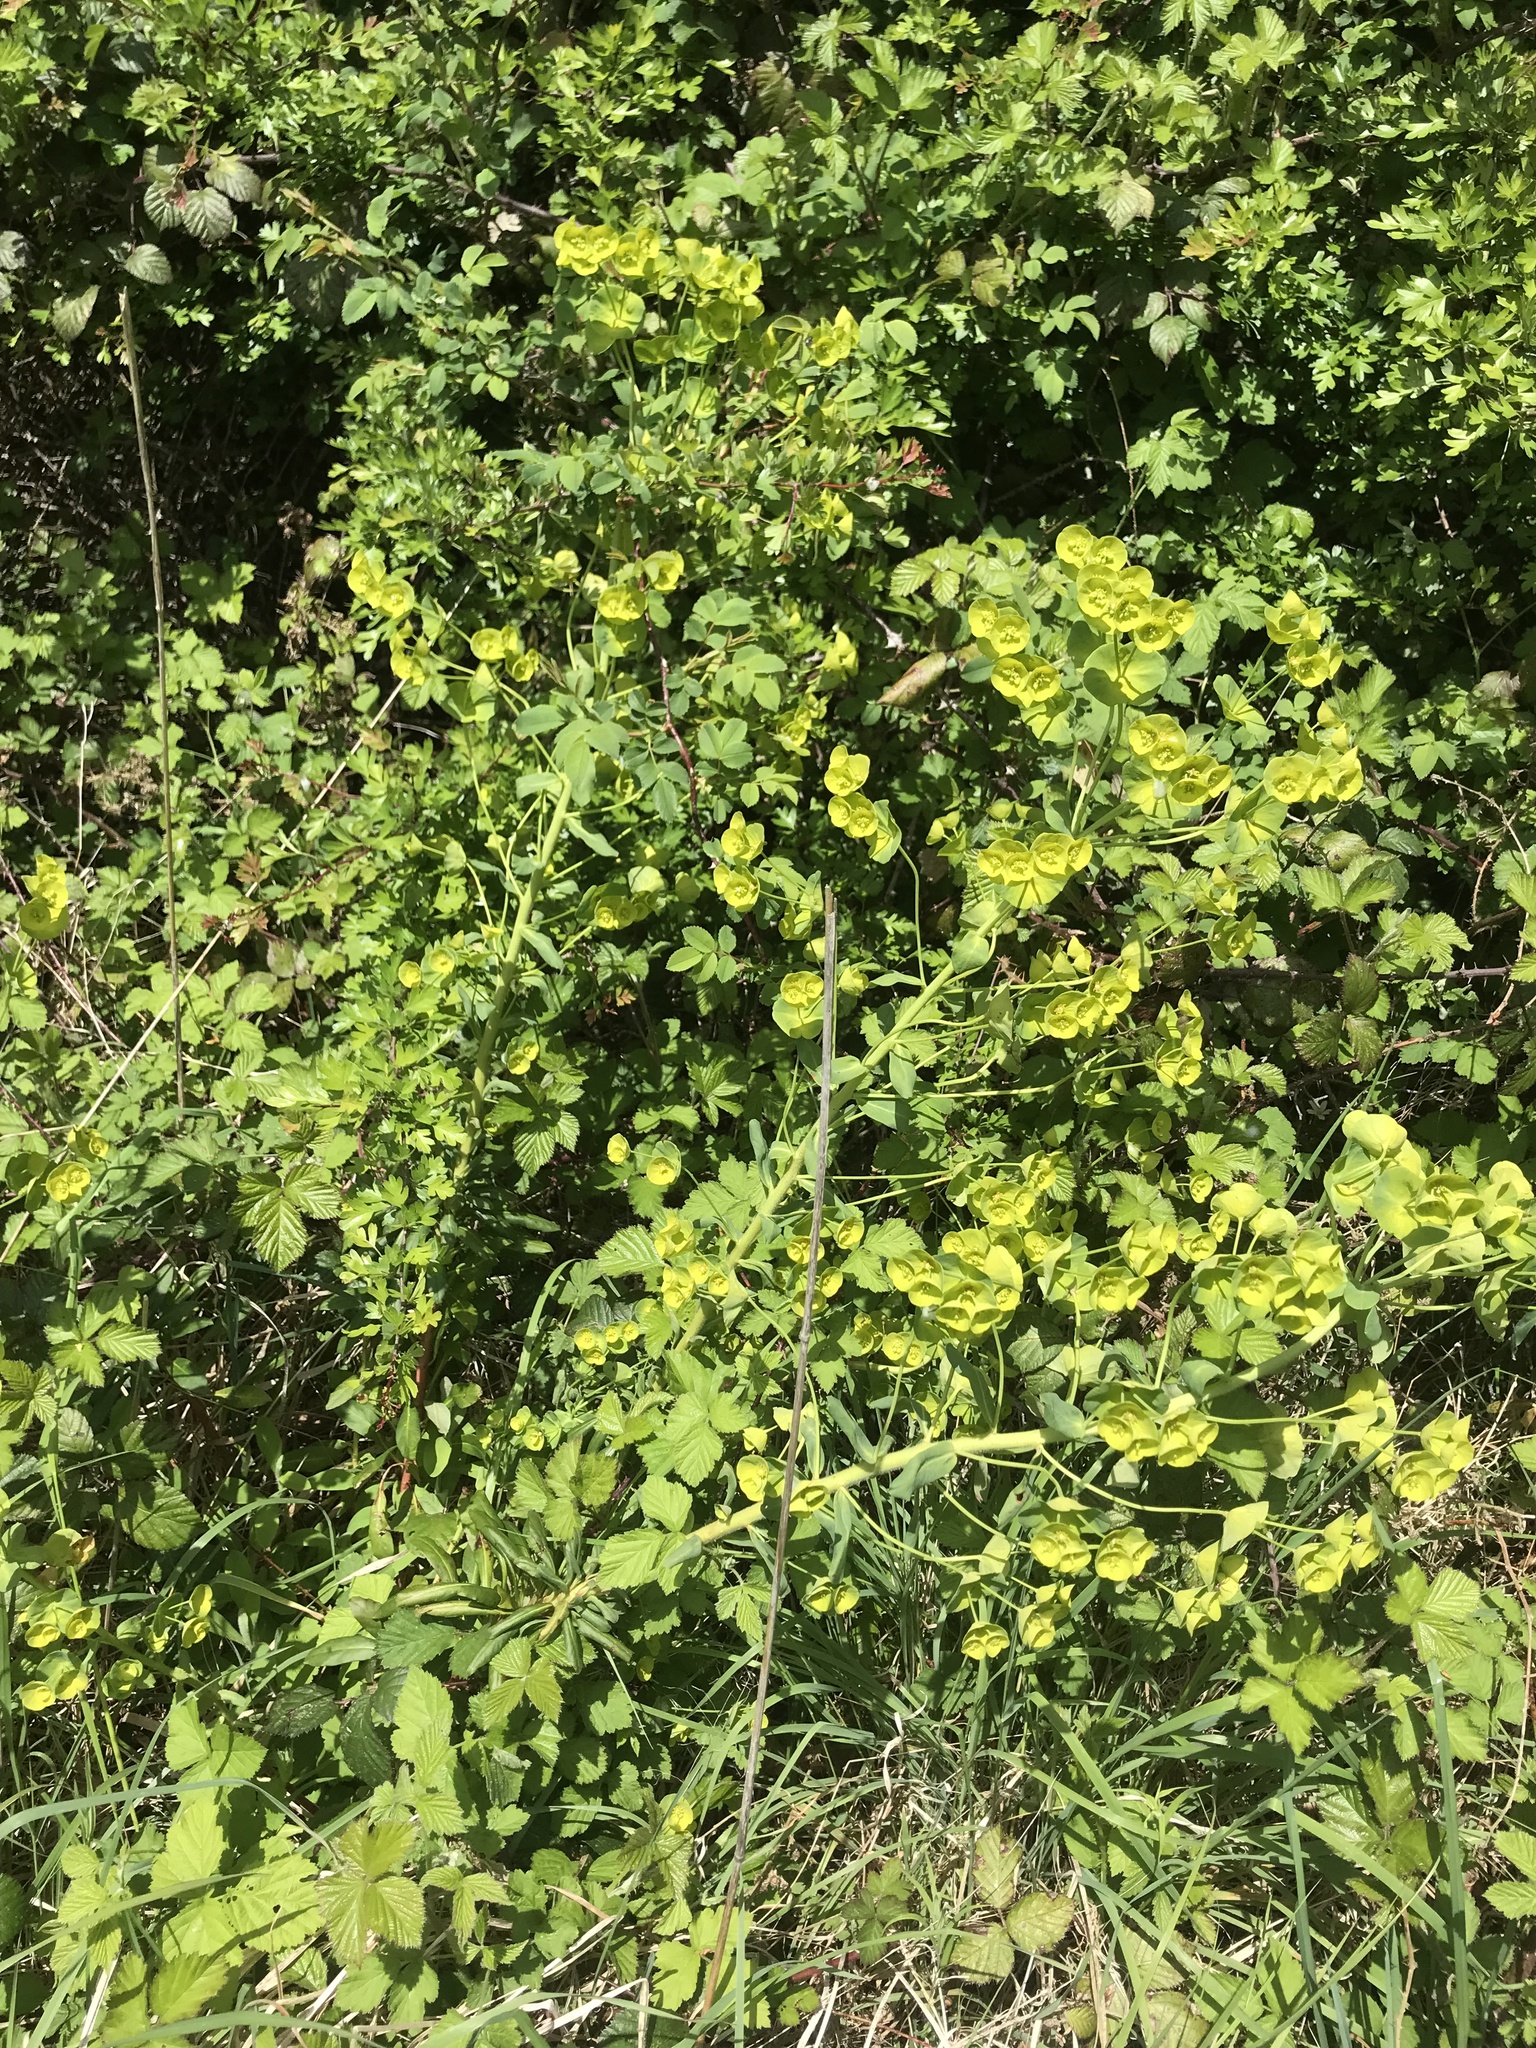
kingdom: Plantae
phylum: Tracheophyta
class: Magnoliopsida
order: Malpighiales
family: Euphorbiaceae
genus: Euphorbia
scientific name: Euphorbia amygdaloides
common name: Wood spurge
